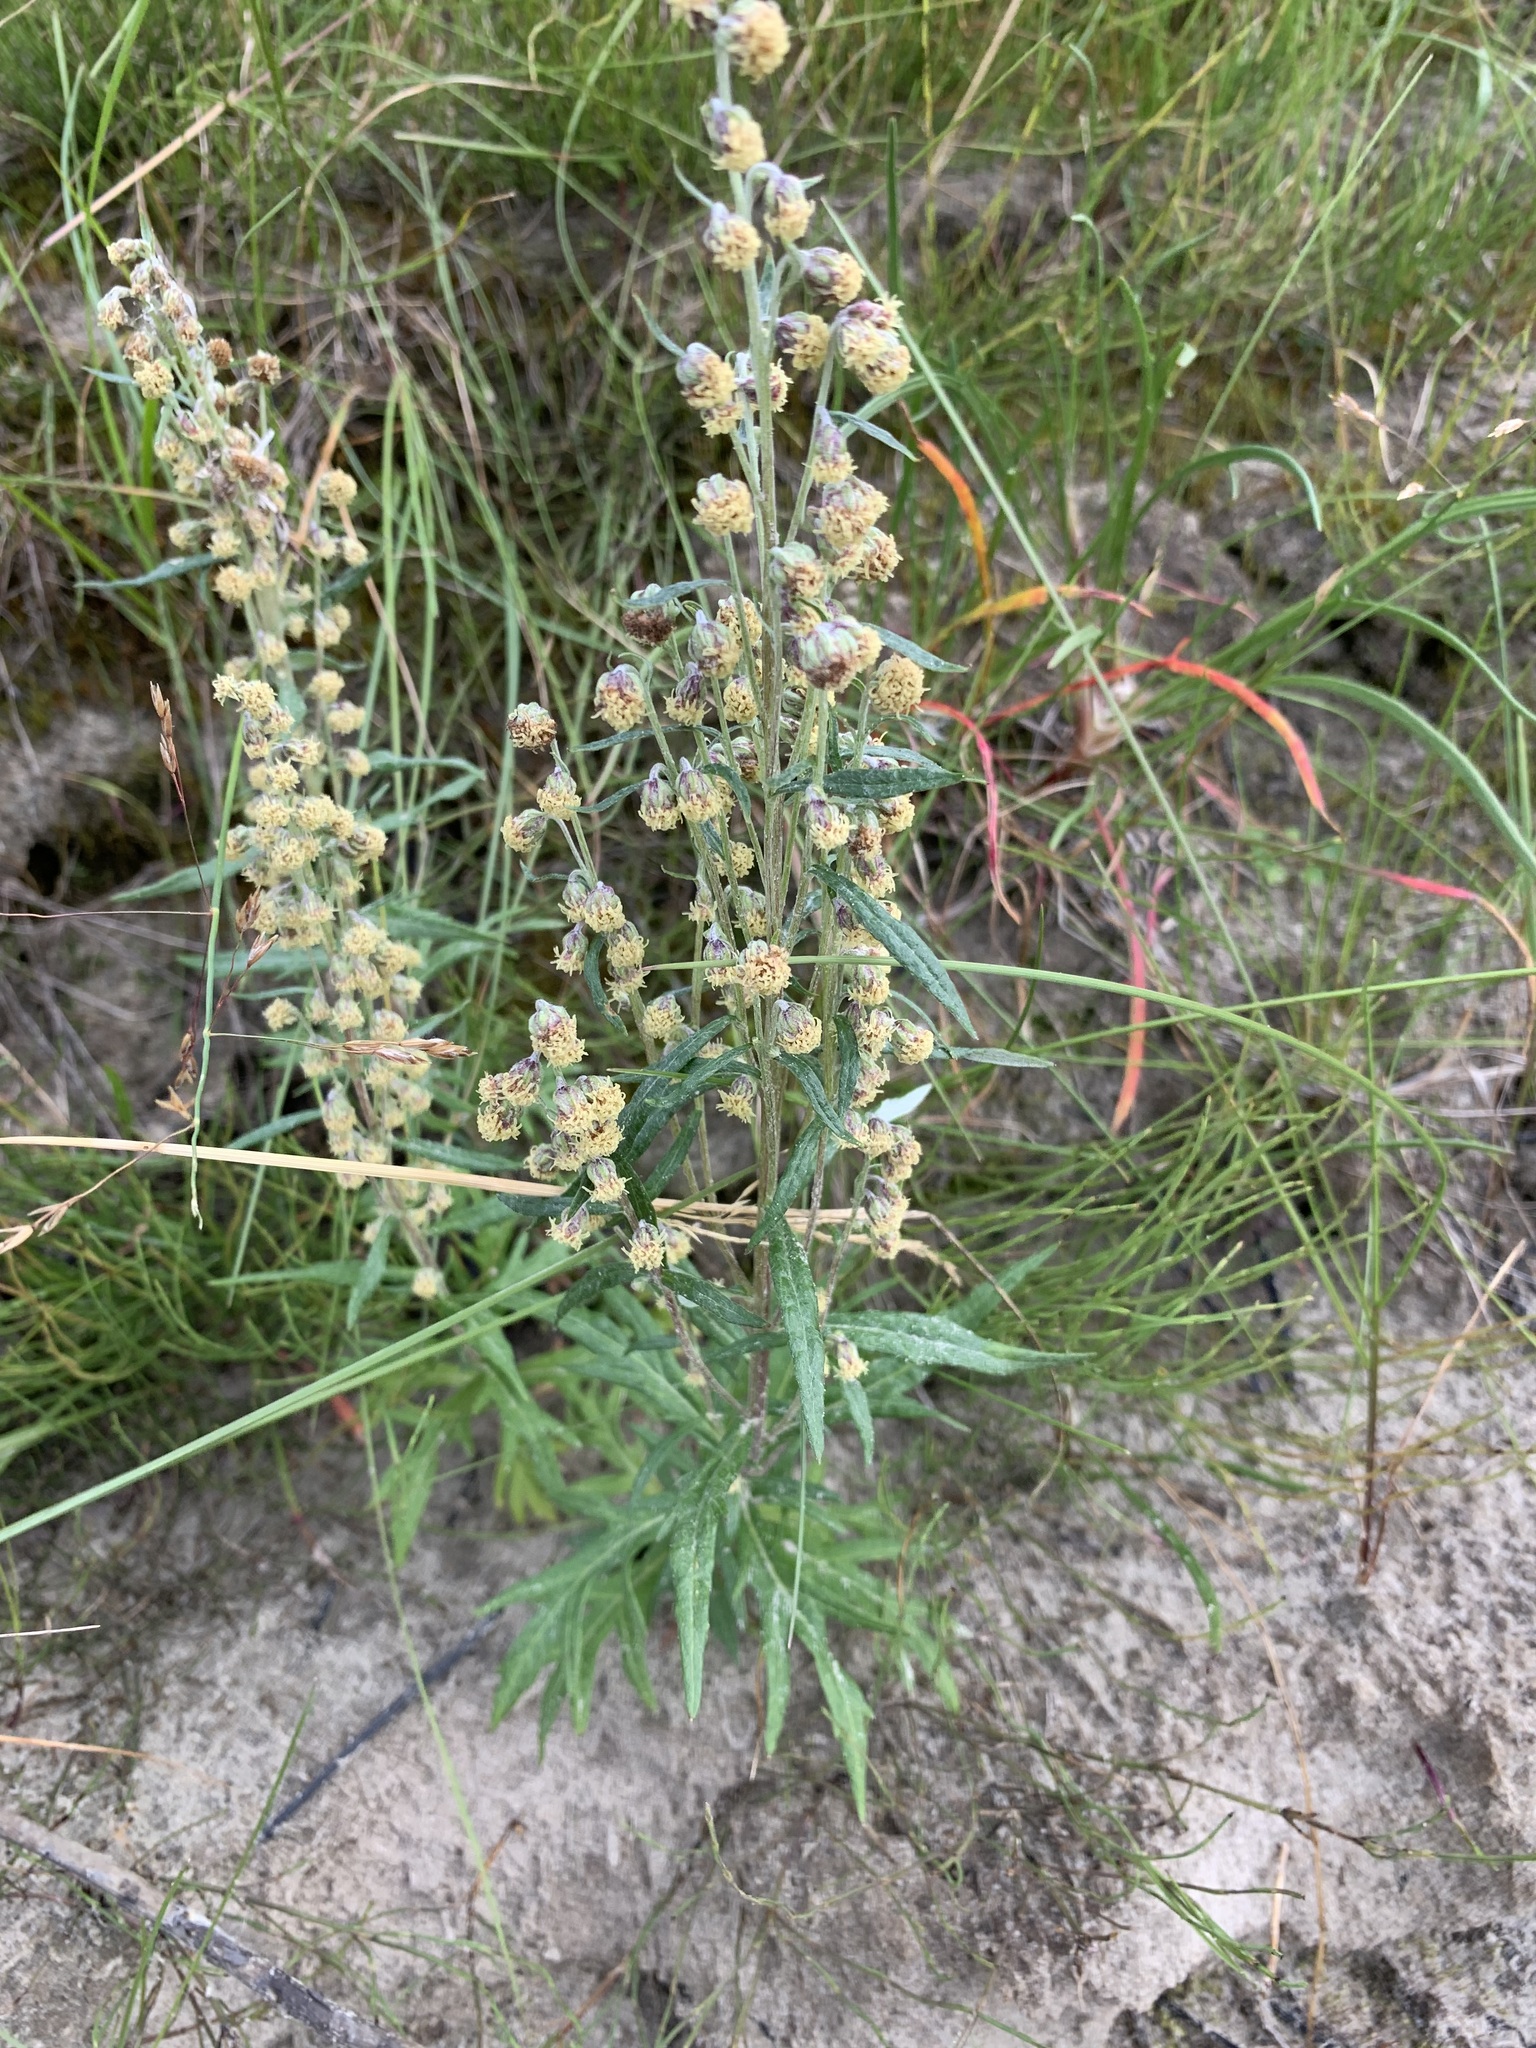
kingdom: Plantae
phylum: Tracheophyta
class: Magnoliopsida
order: Asterales
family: Asteraceae
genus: Artemisia
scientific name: Artemisia tilesii
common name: Aleutian mugwort
